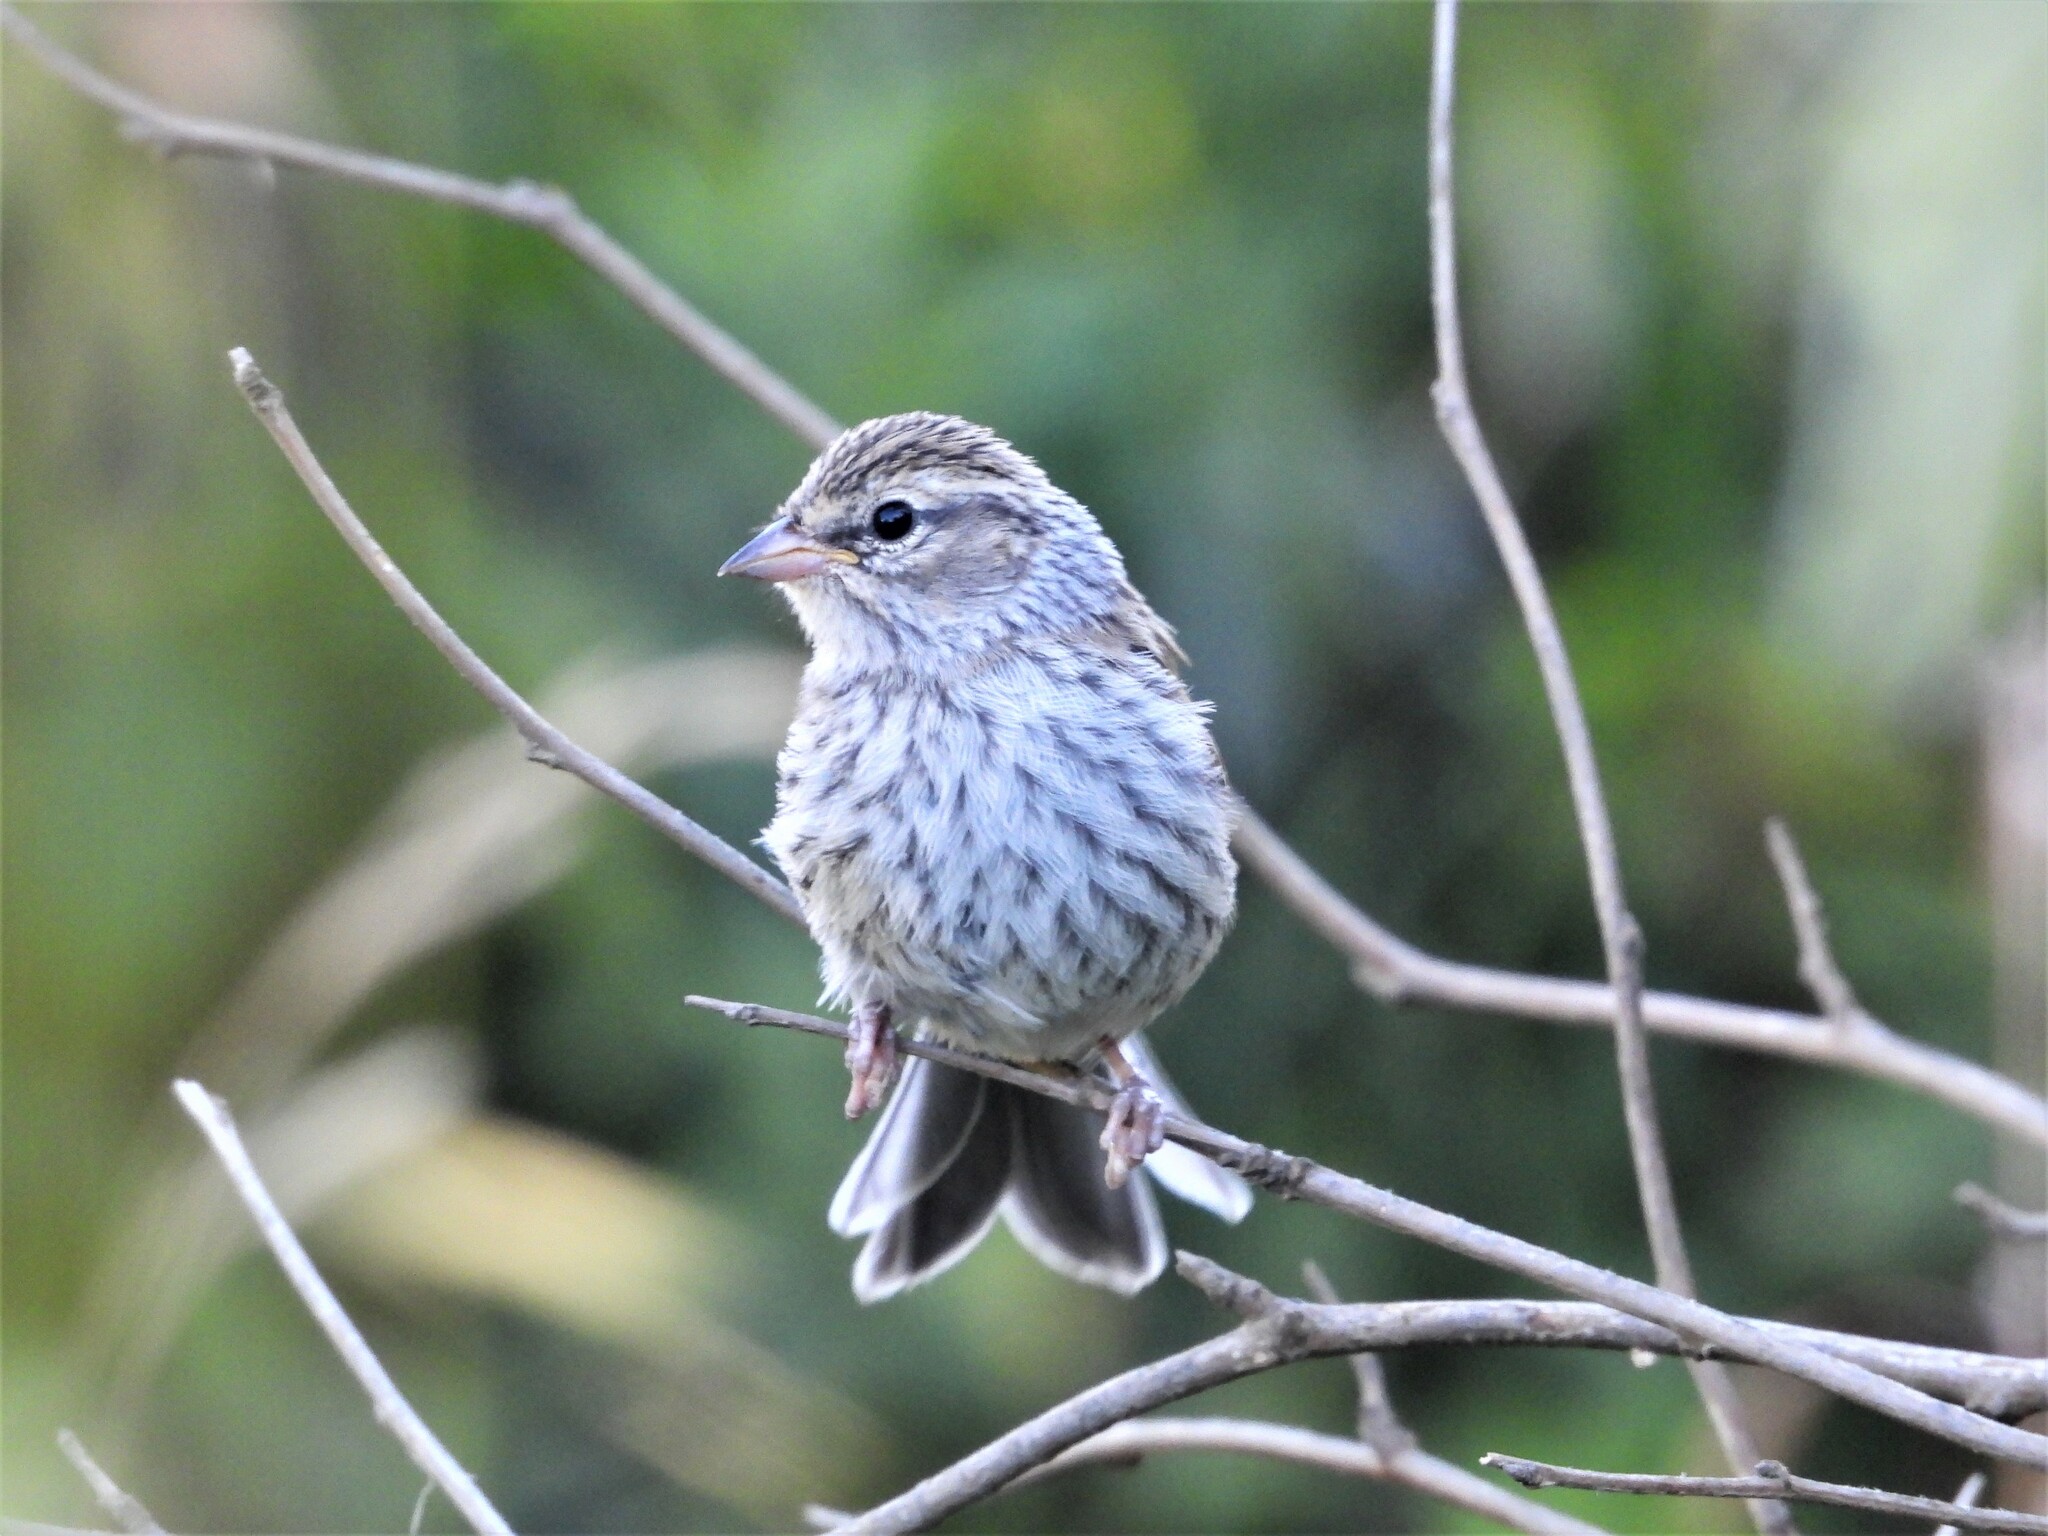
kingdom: Animalia
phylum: Chordata
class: Aves
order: Passeriformes
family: Passerellidae
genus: Spizella
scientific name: Spizella passerina
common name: Chipping sparrow
